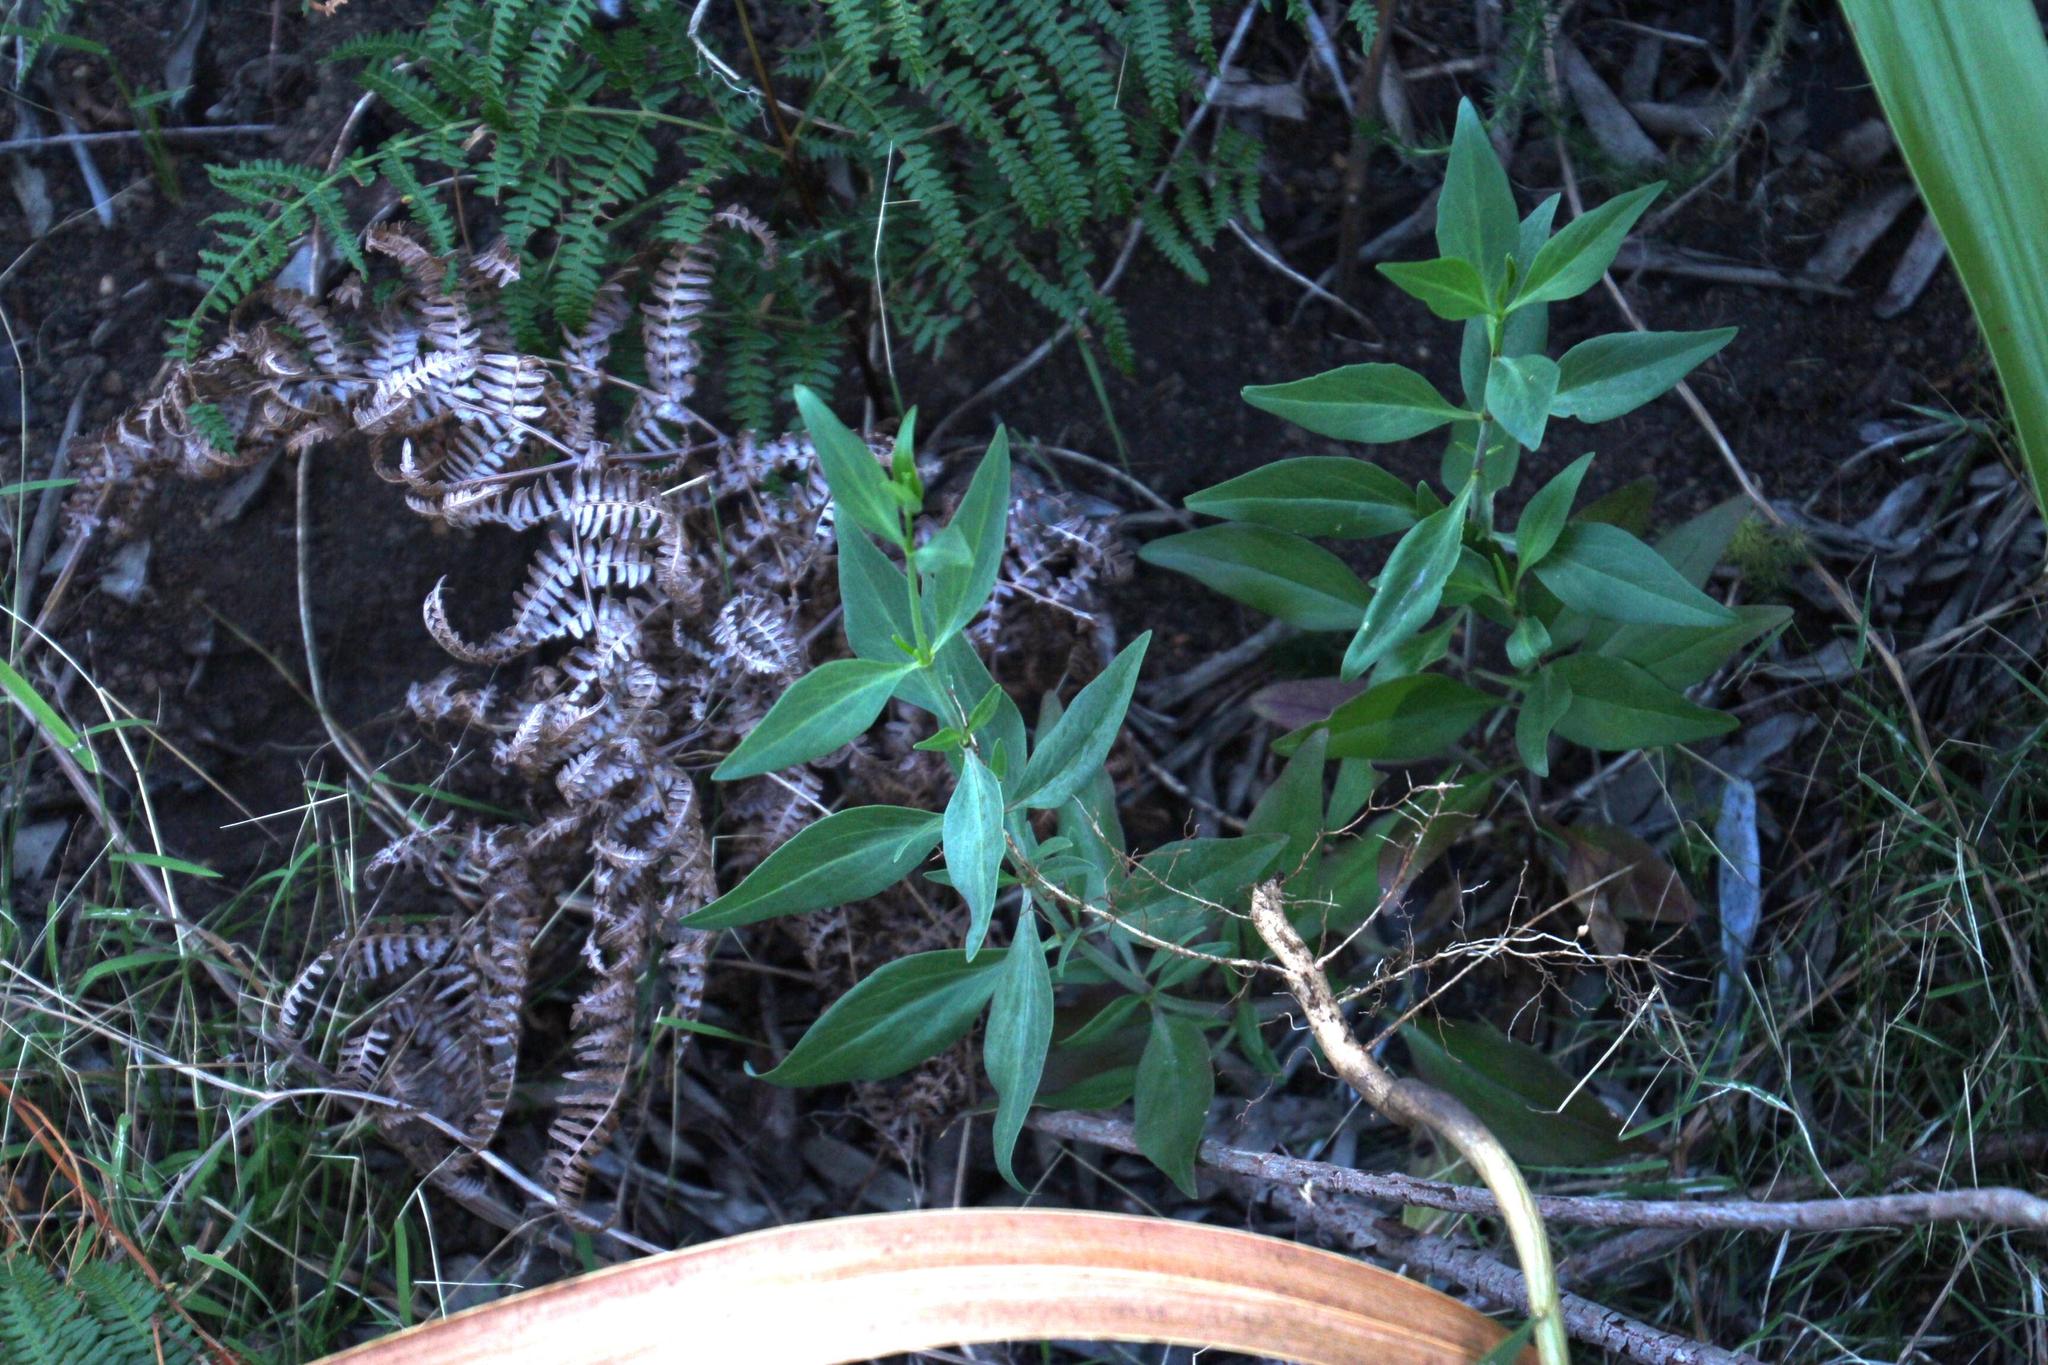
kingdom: Plantae
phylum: Tracheophyta
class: Magnoliopsida
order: Dipsacales
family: Caprifoliaceae
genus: Centranthus
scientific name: Centranthus ruber
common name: Red valerian
